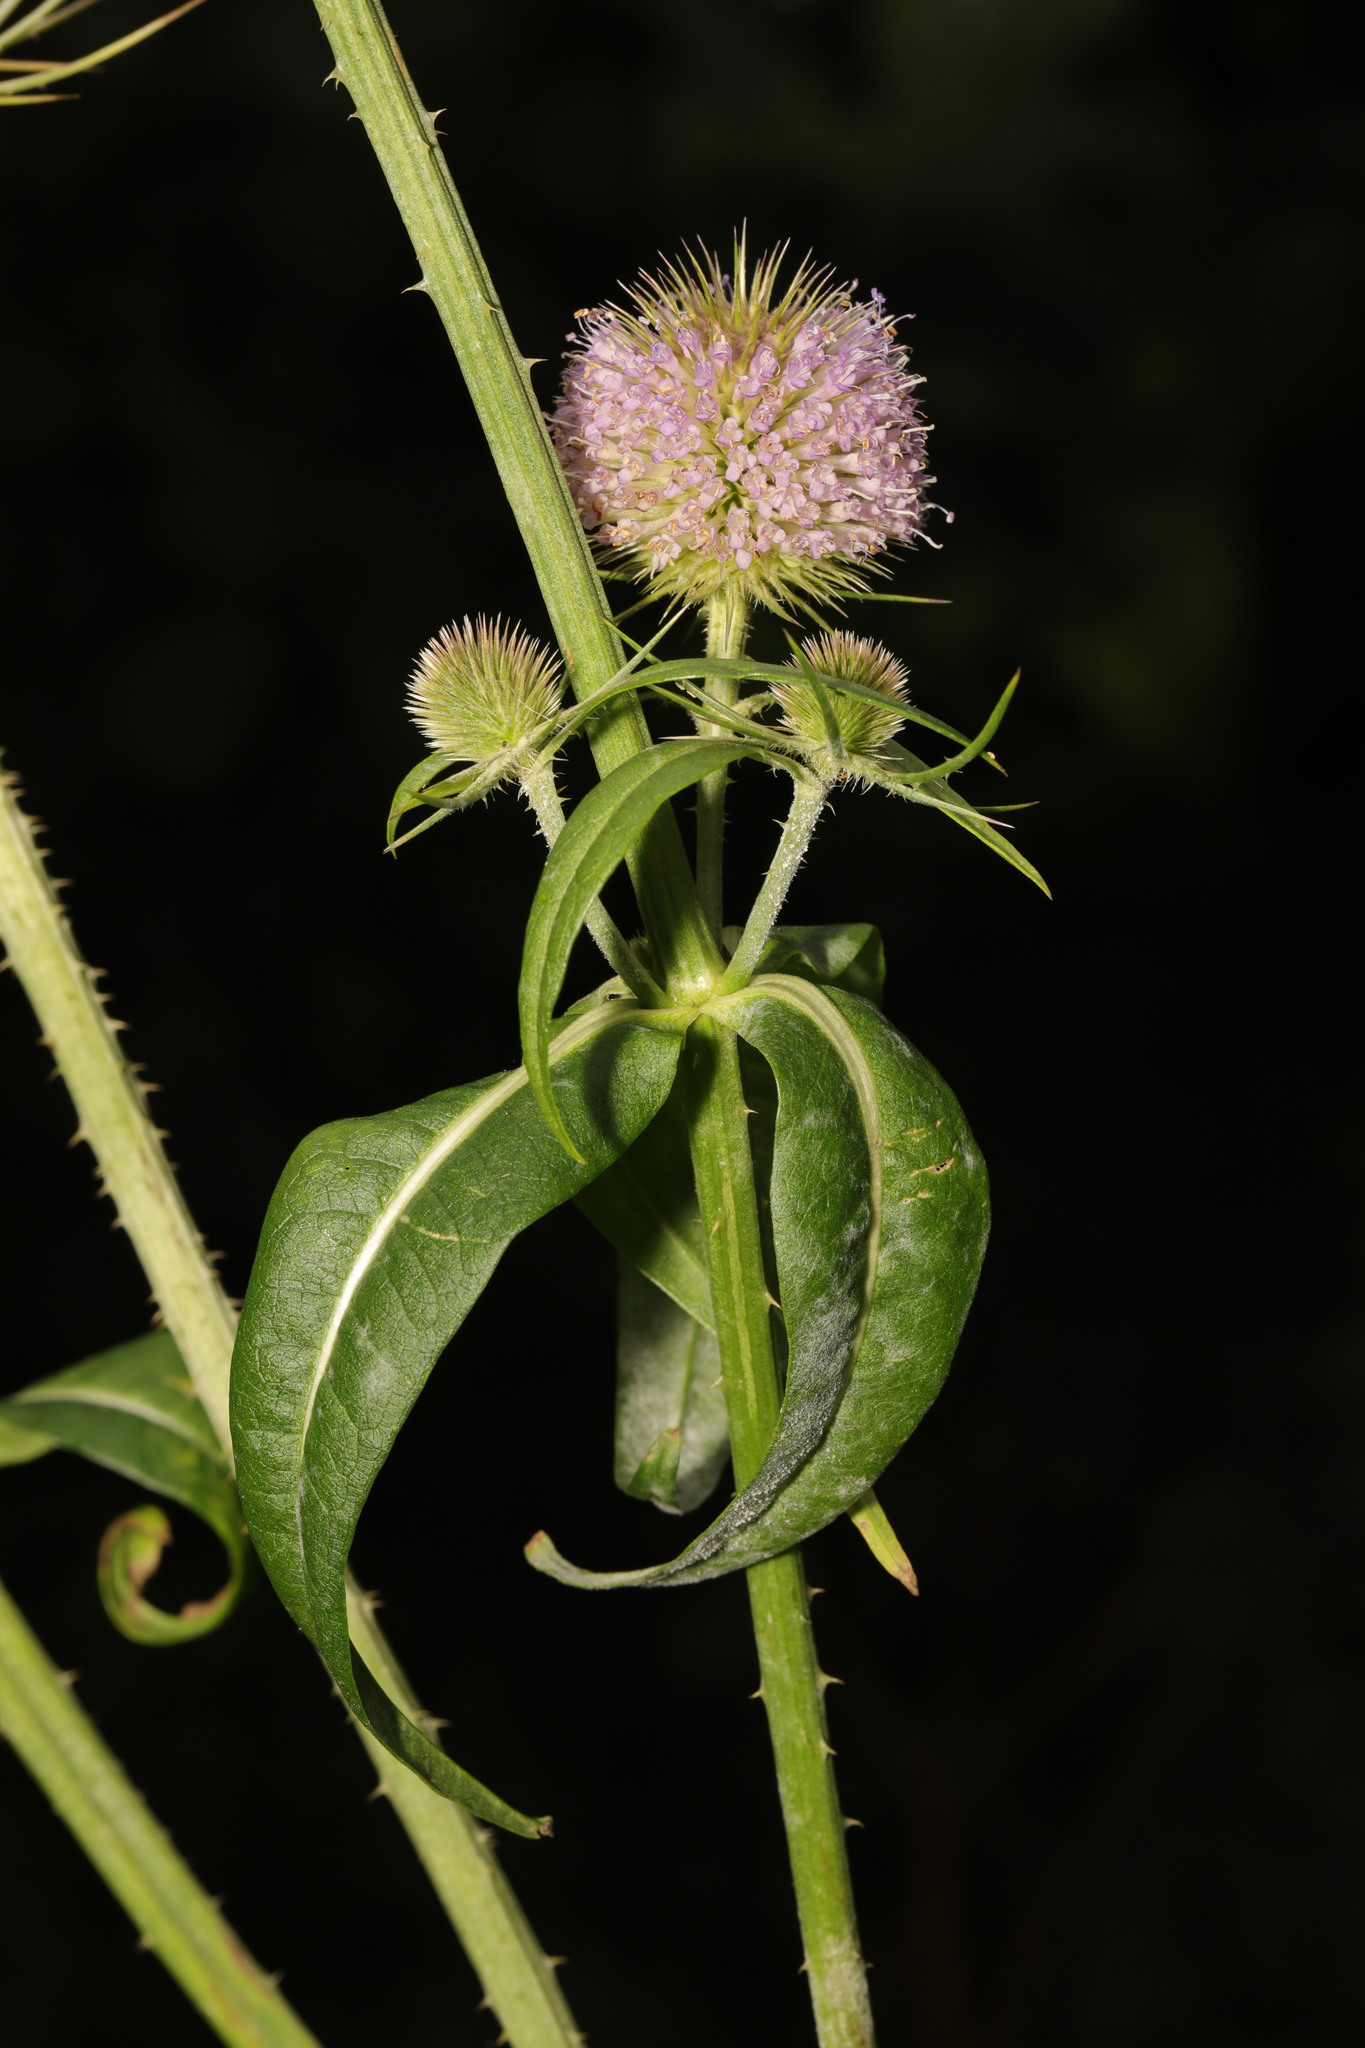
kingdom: Plantae
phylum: Tracheophyta
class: Magnoliopsida
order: Dipsacales
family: Caprifoliaceae
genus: Dipsacus
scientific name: Dipsacus fullonum
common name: Teasel
